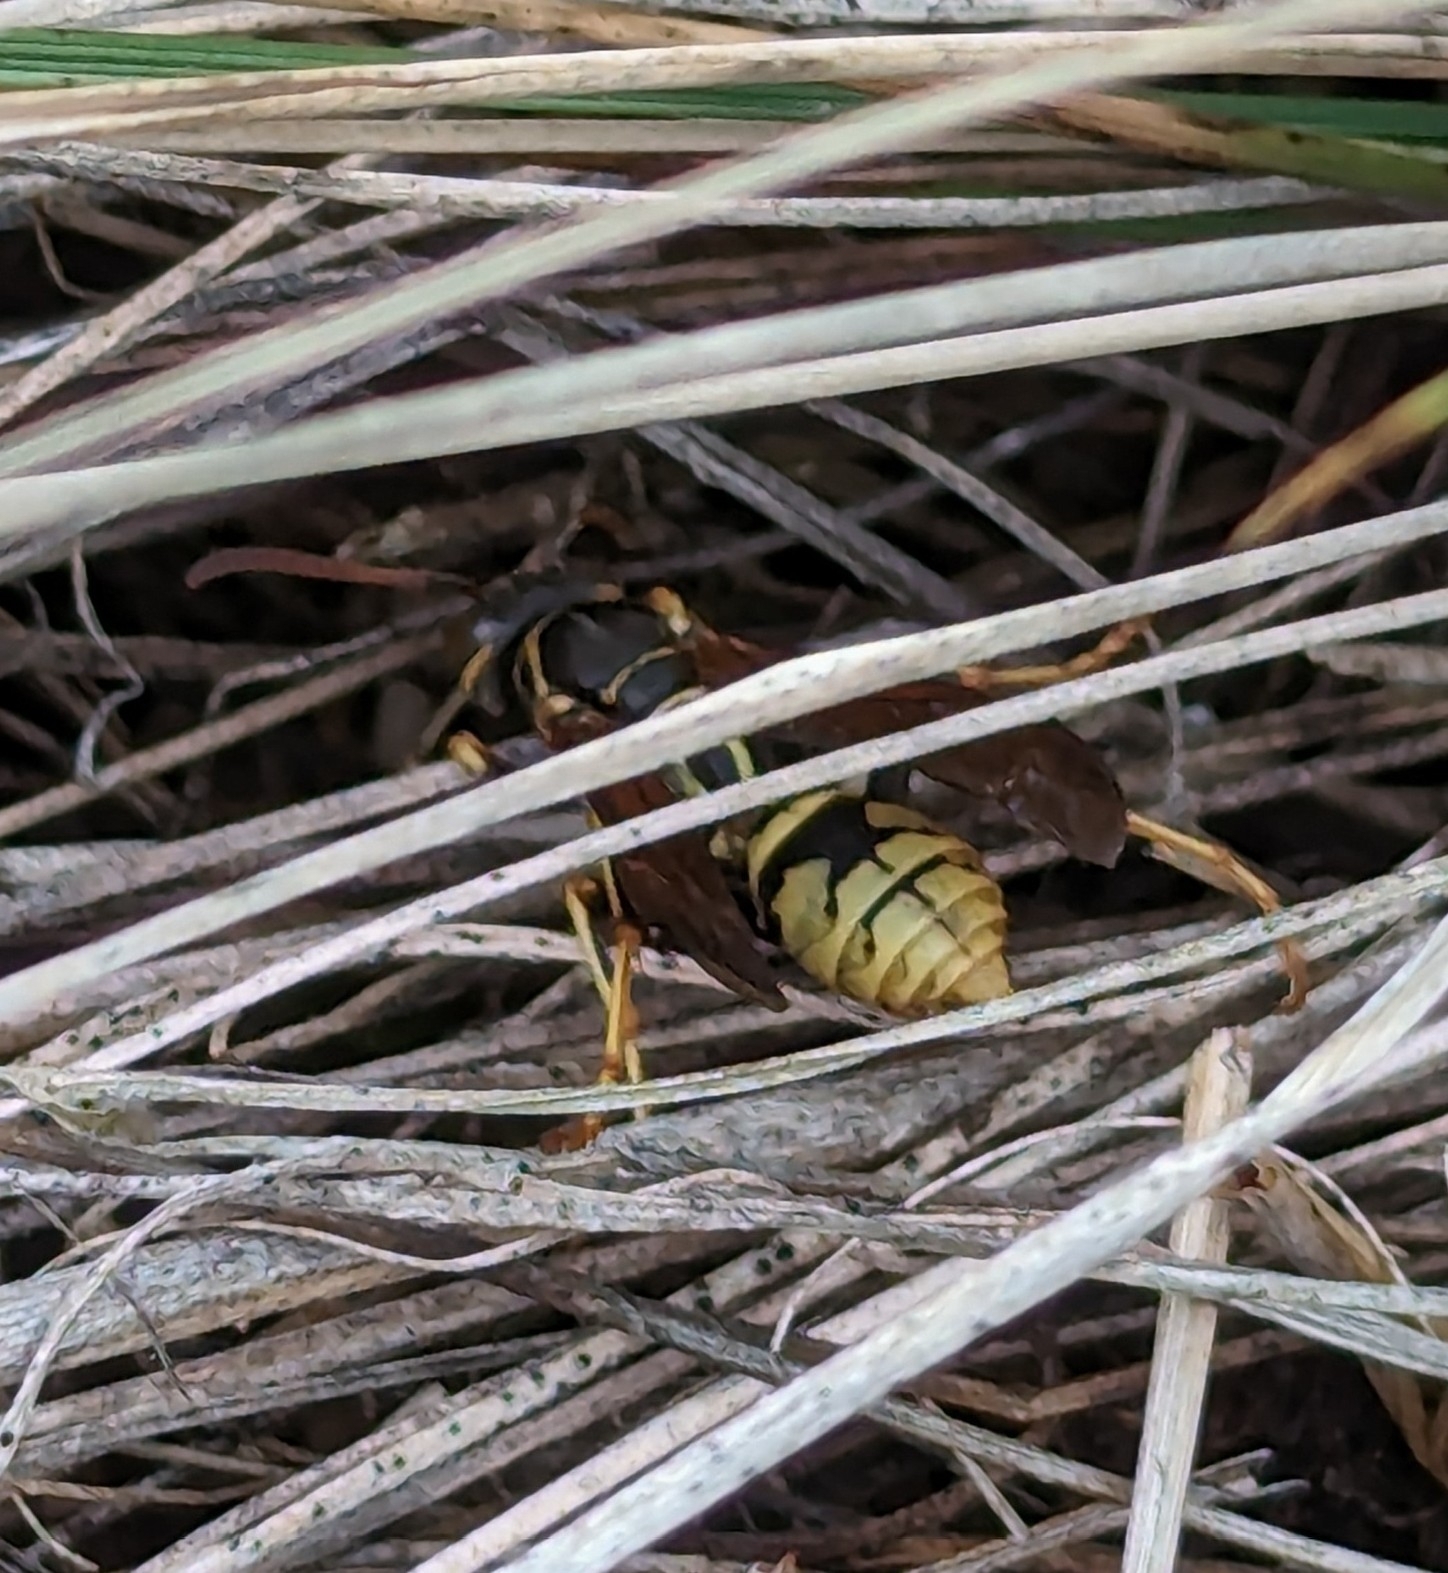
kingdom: Animalia
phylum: Arthropoda
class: Insecta
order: Hymenoptera
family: Eumenidae
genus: Polistes
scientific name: Polistes aurifer
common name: Paper wasp
